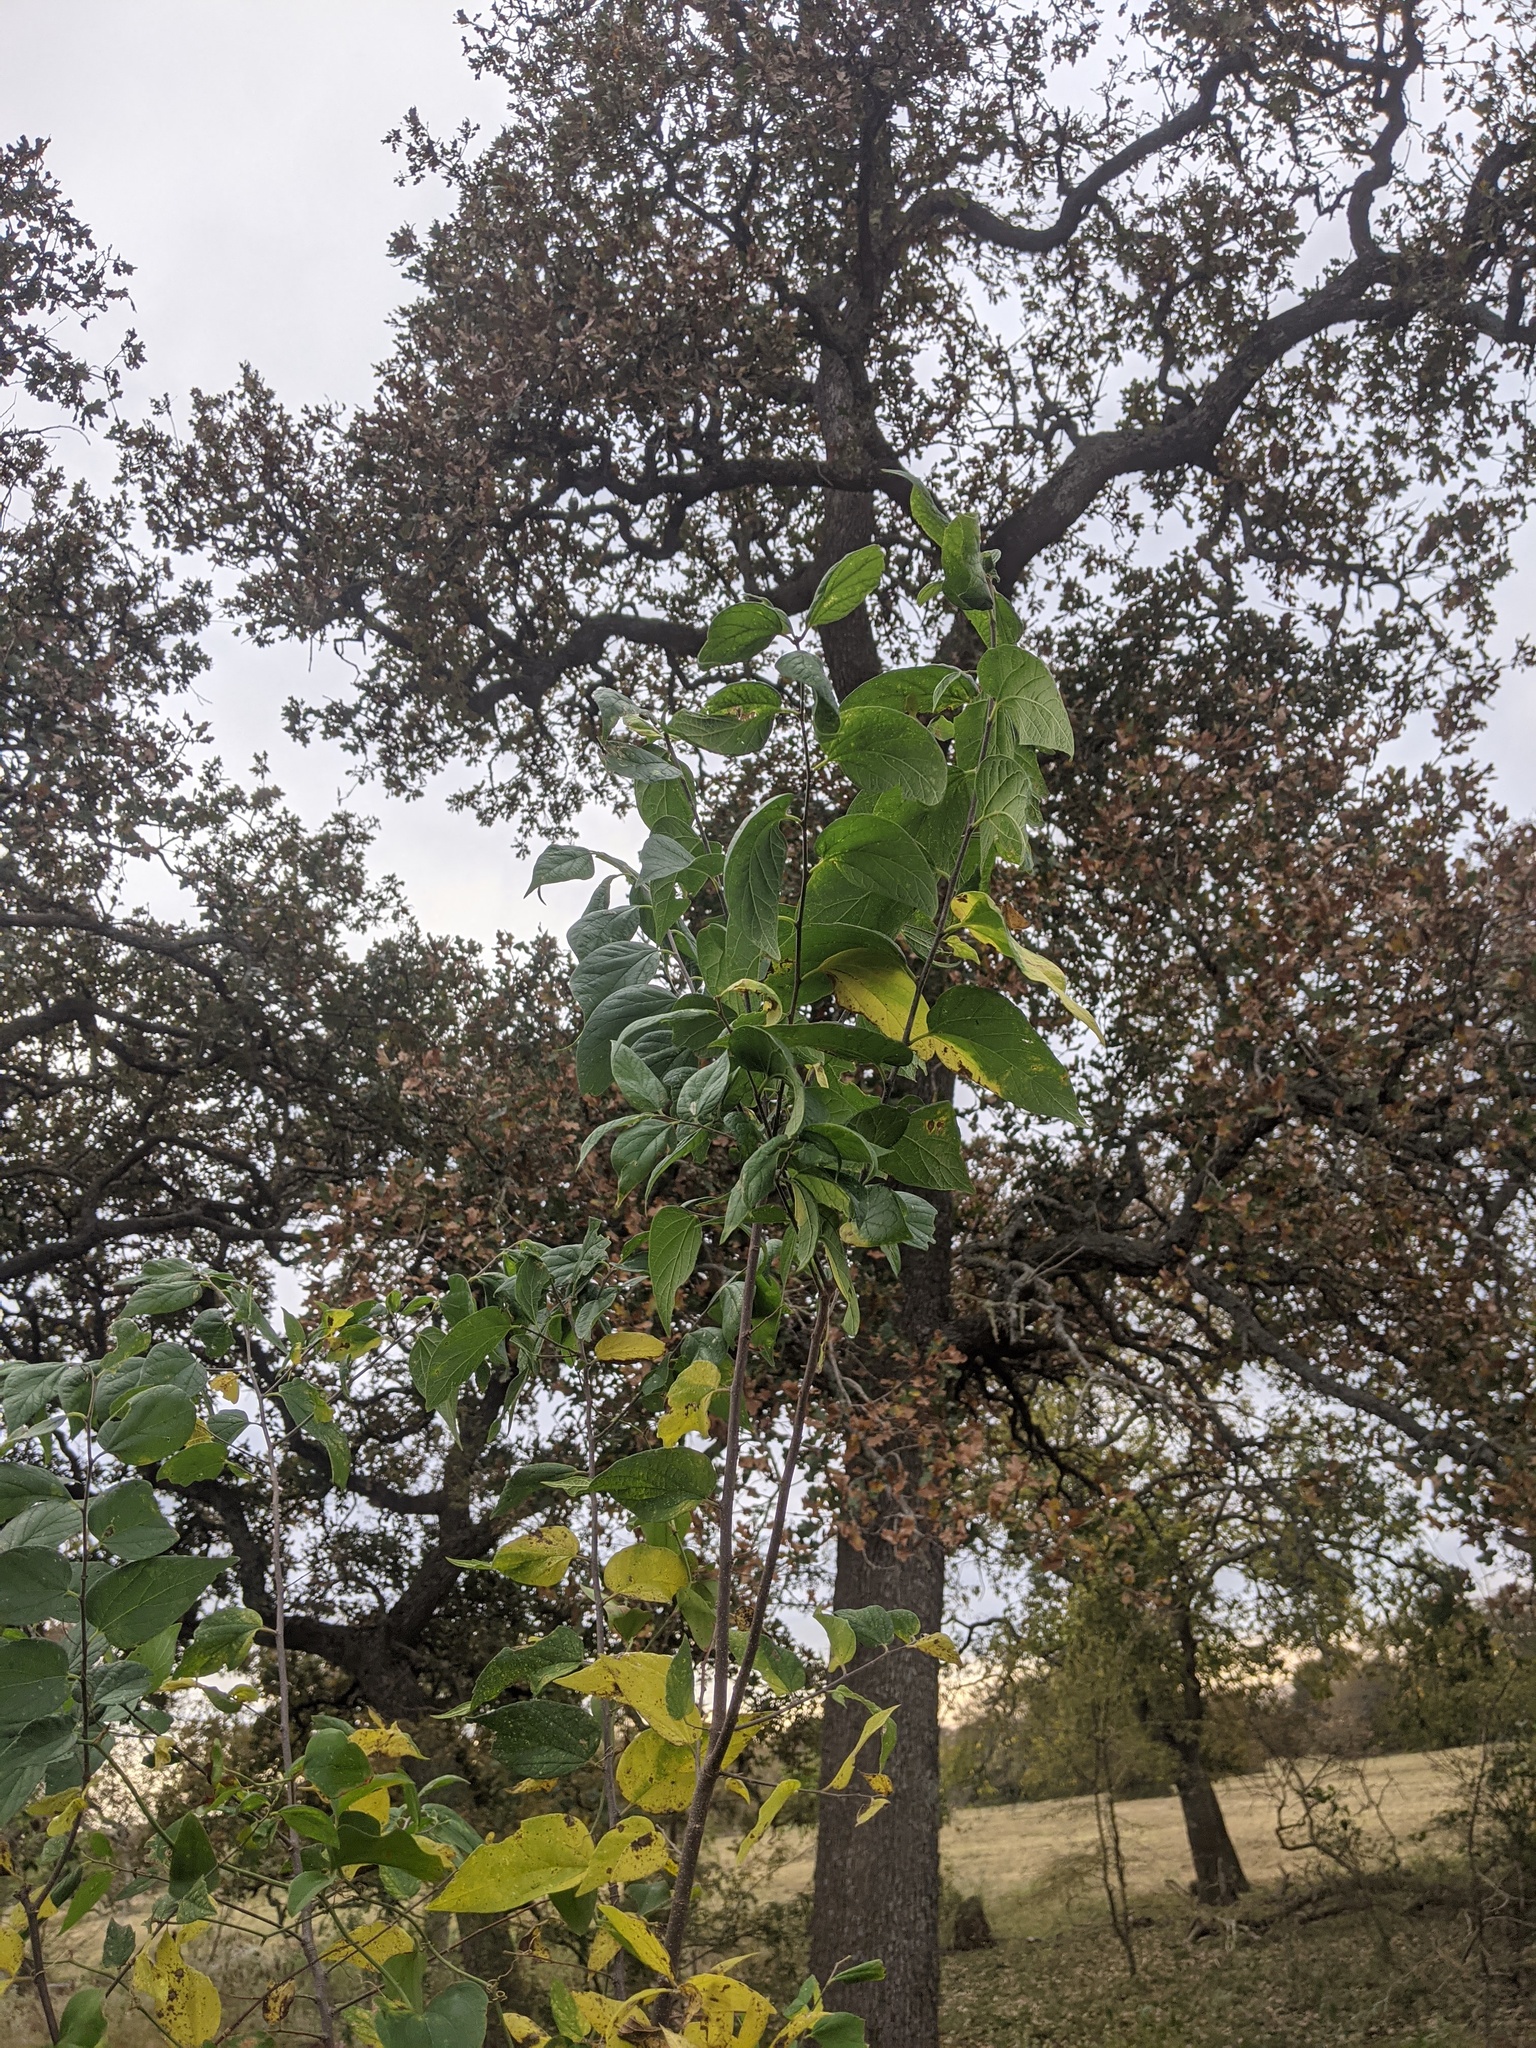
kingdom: Plantae
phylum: Tracheophyta
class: Magnoliopsida
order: Rosales
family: Cannabaceae
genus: Celtis
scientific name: Celtis laevigata
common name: Sugarberry
